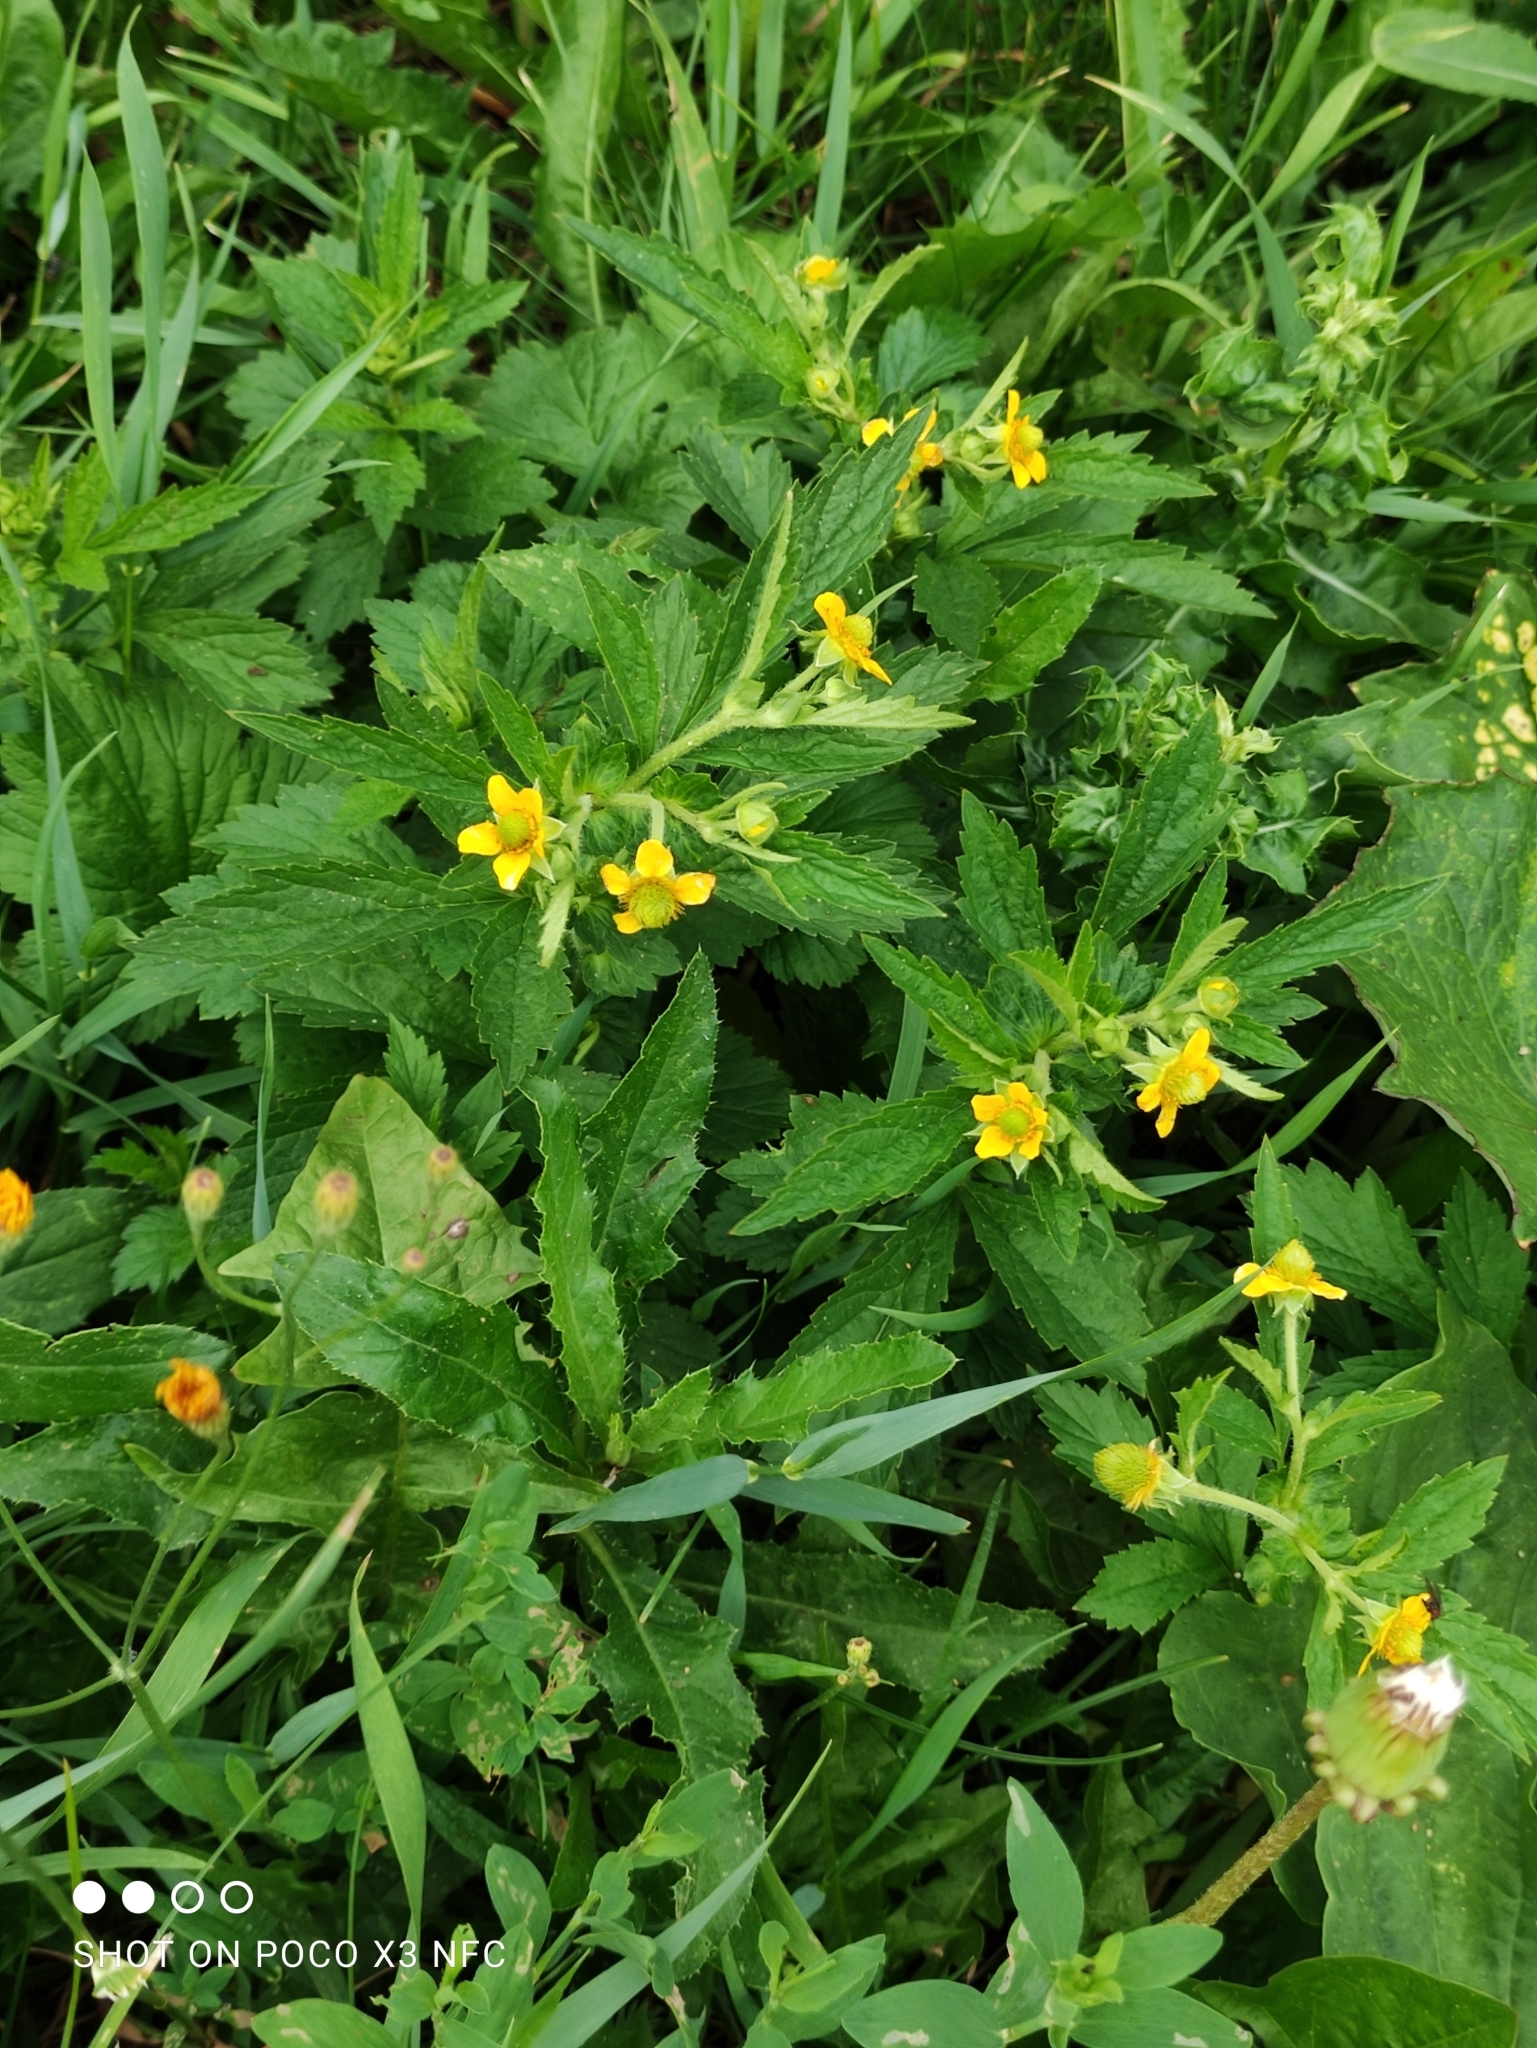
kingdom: Plantae
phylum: Tracheophyta
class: Magnoliopsida
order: Rosales
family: Rosaceae
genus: Geum
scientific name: Geum aleppicum
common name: Yellow avens
